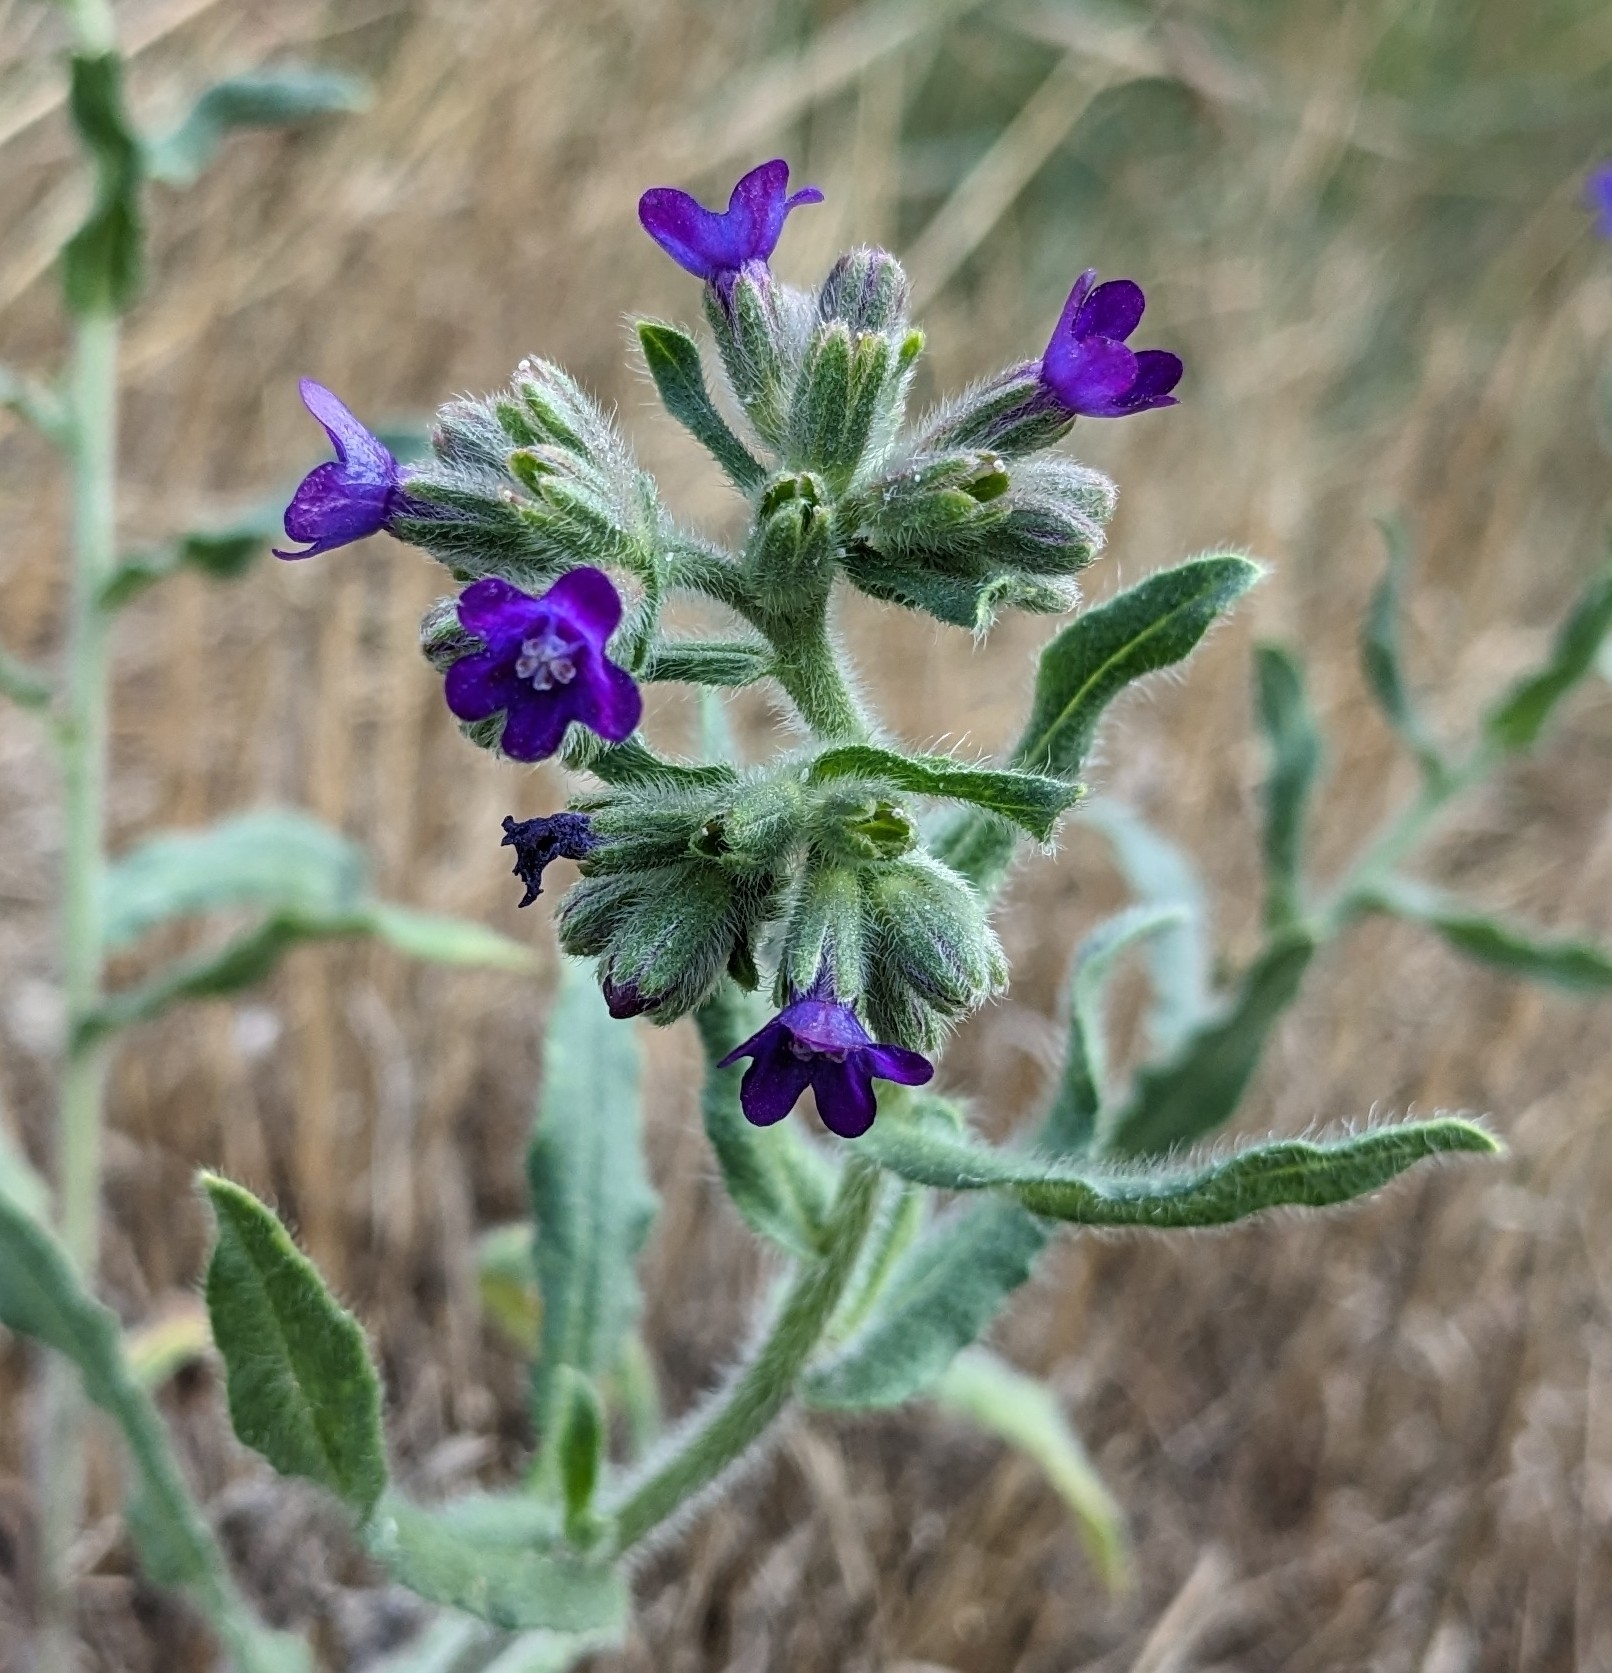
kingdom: Plantae
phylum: Tracheophyta
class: Magnoliopsida
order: Boraginales
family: Boraginaceae
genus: Anchusa
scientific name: Anchusa officinalis
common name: Alkanet
